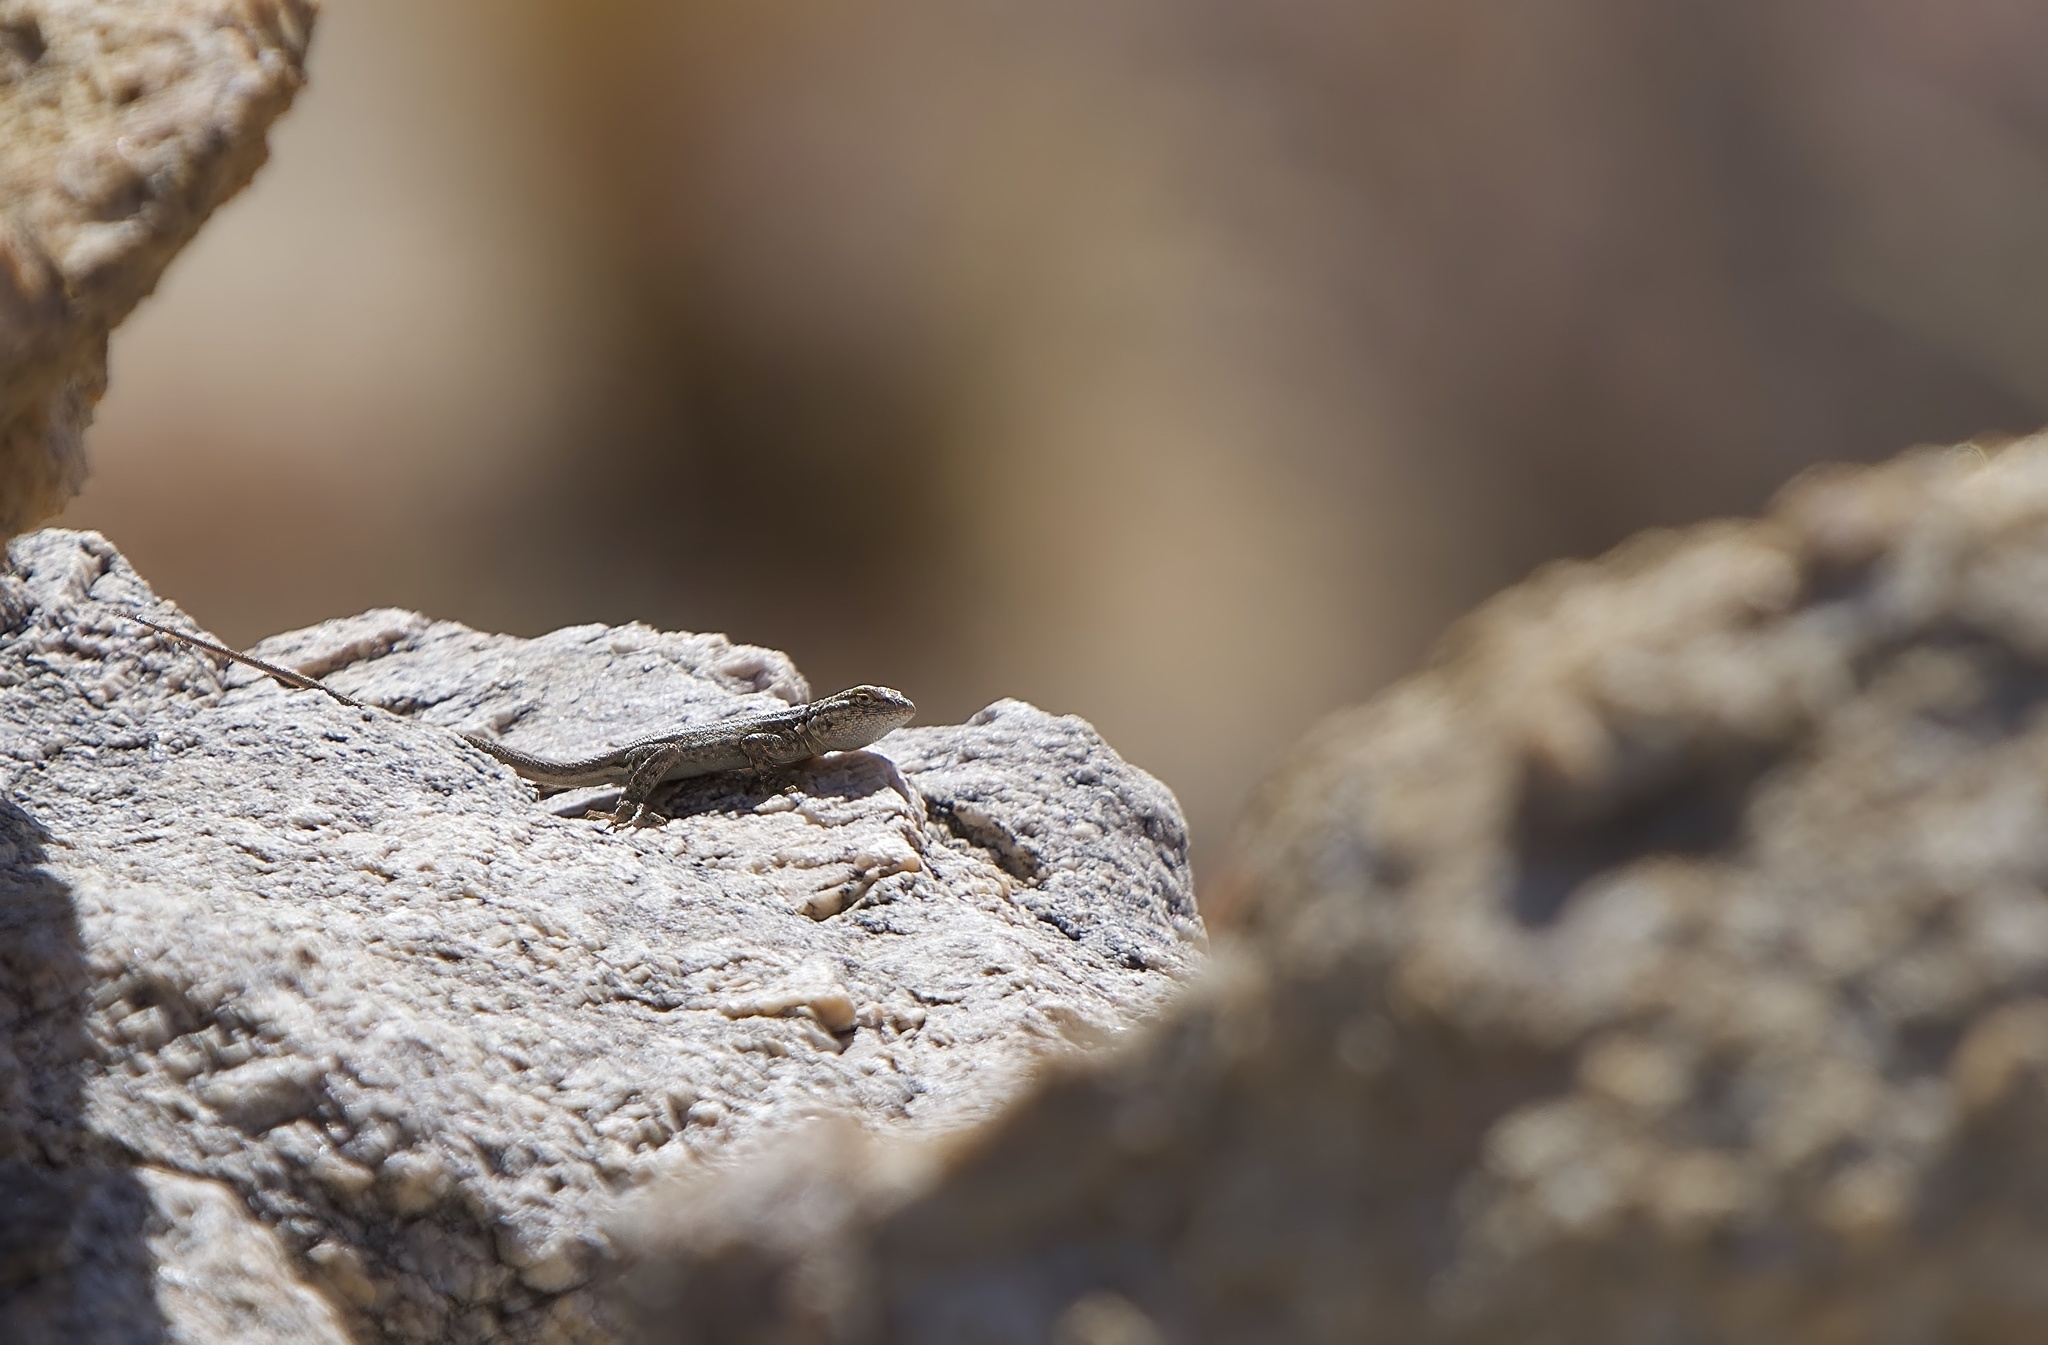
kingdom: Animalia
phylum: Chordata
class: Squamata
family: Phrynosomatidae
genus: Uta
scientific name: Uta stansburiana
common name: Side-blotched lizard
